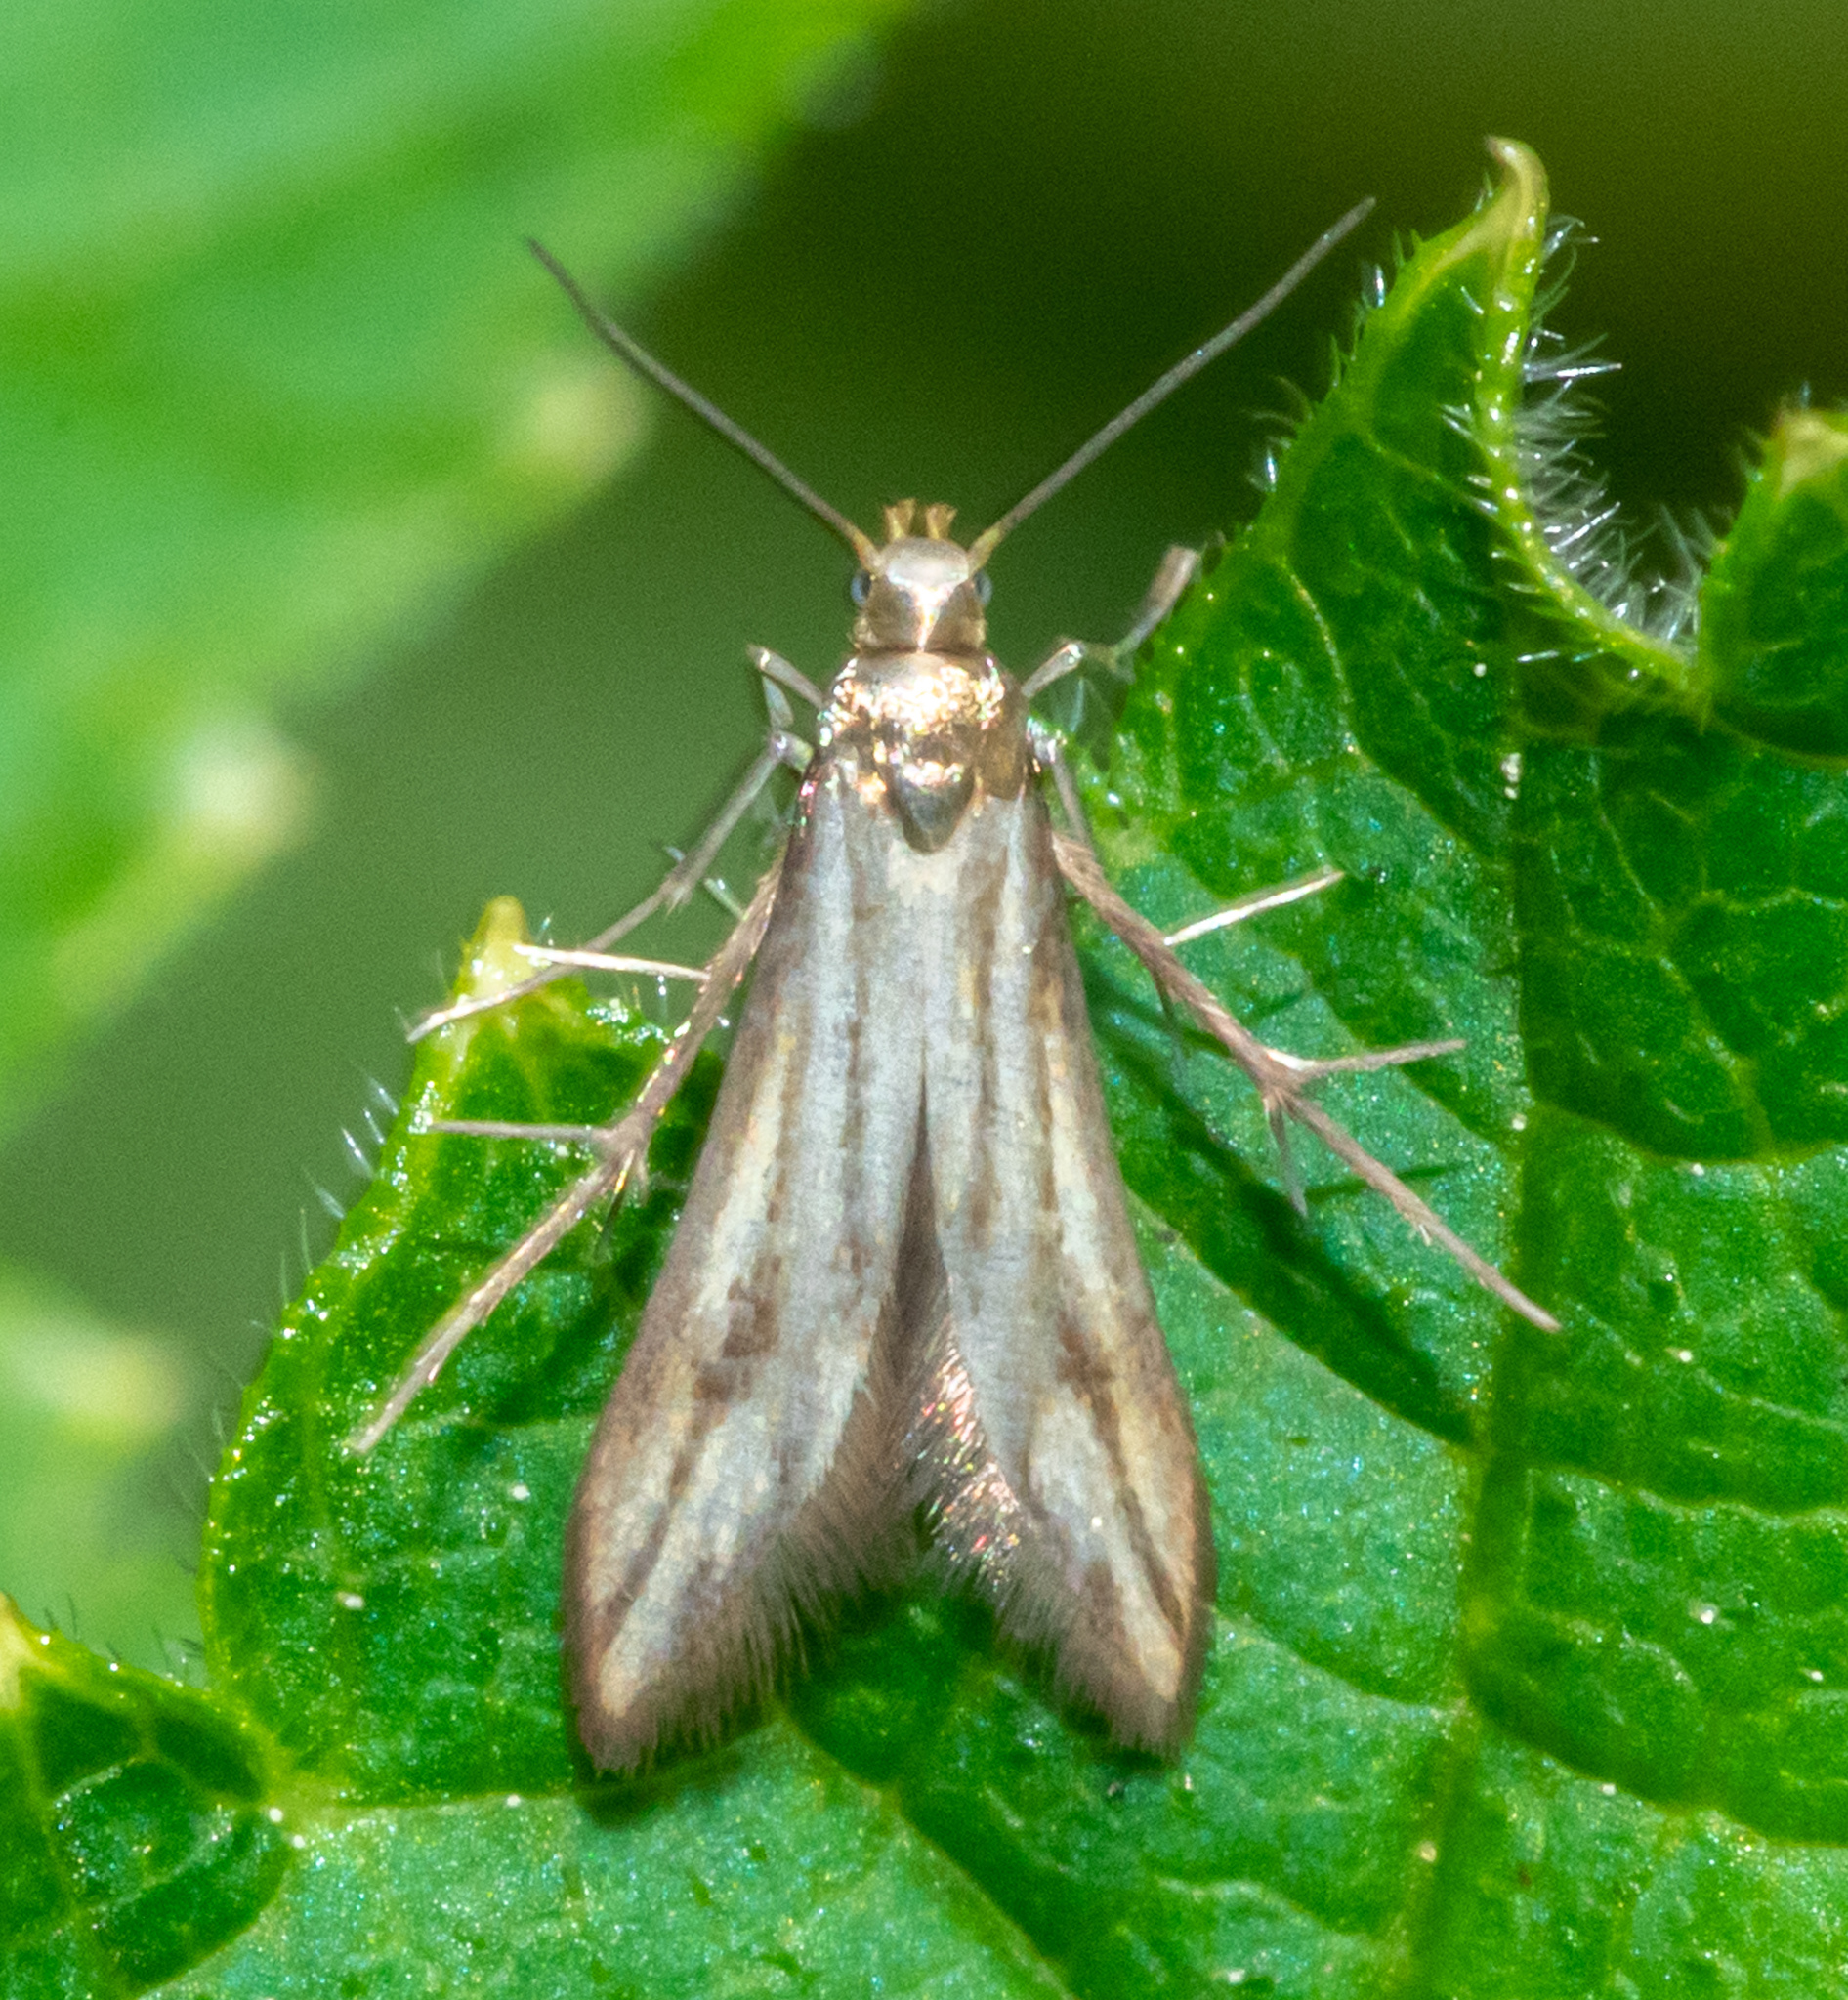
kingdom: Animalia
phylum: Arthropoda
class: Insecta
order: Lepidoptera
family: Schreckensteiniidae
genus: Schreckensteinia
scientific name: Schreckensteinia festaliella
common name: Blackberry skeletonizer
